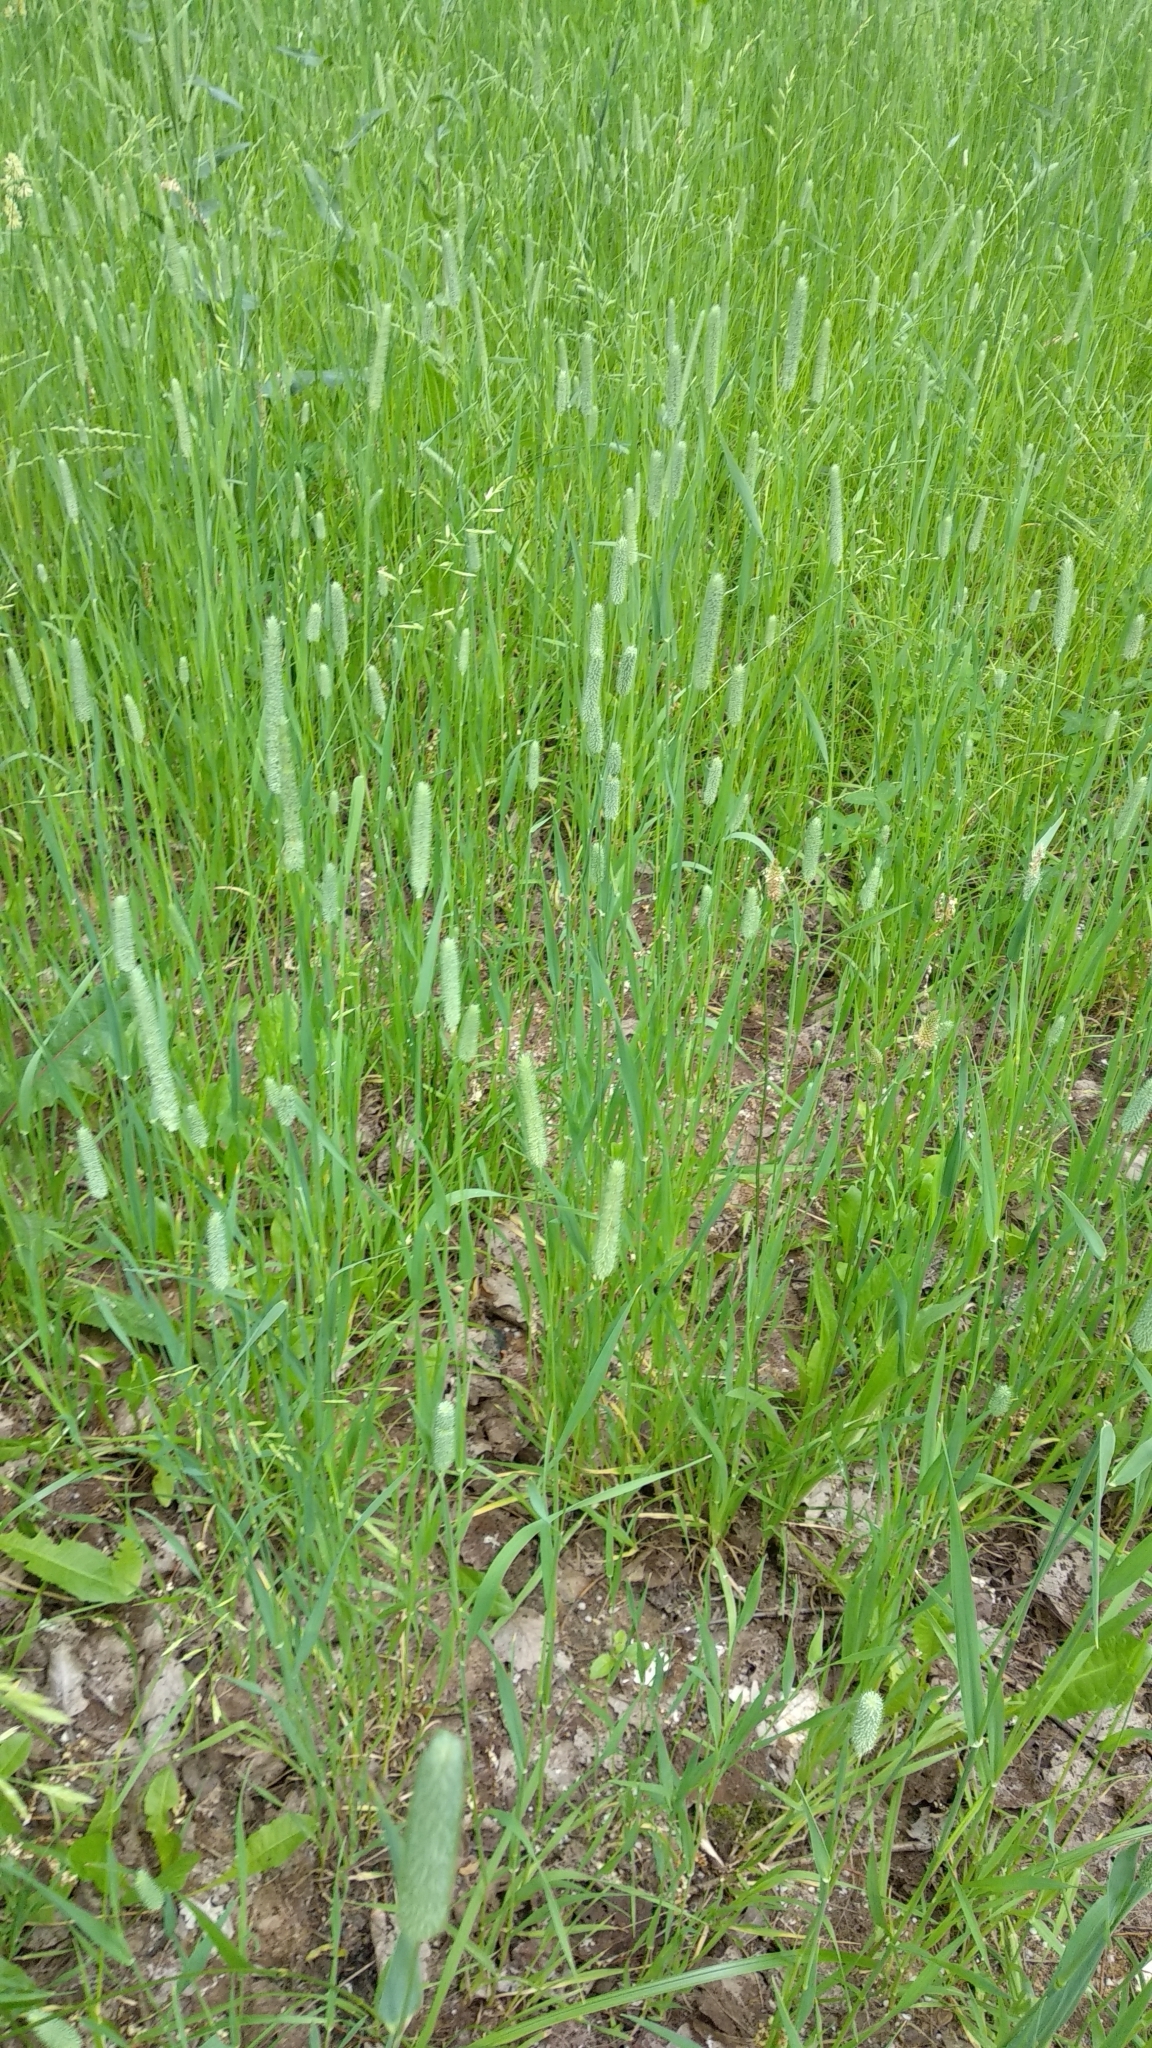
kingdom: Plantae
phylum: Tracheophyta
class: Liliopsida
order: Poales
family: Poaceae
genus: Phleum
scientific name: Phleum pratense
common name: Timothy grass
